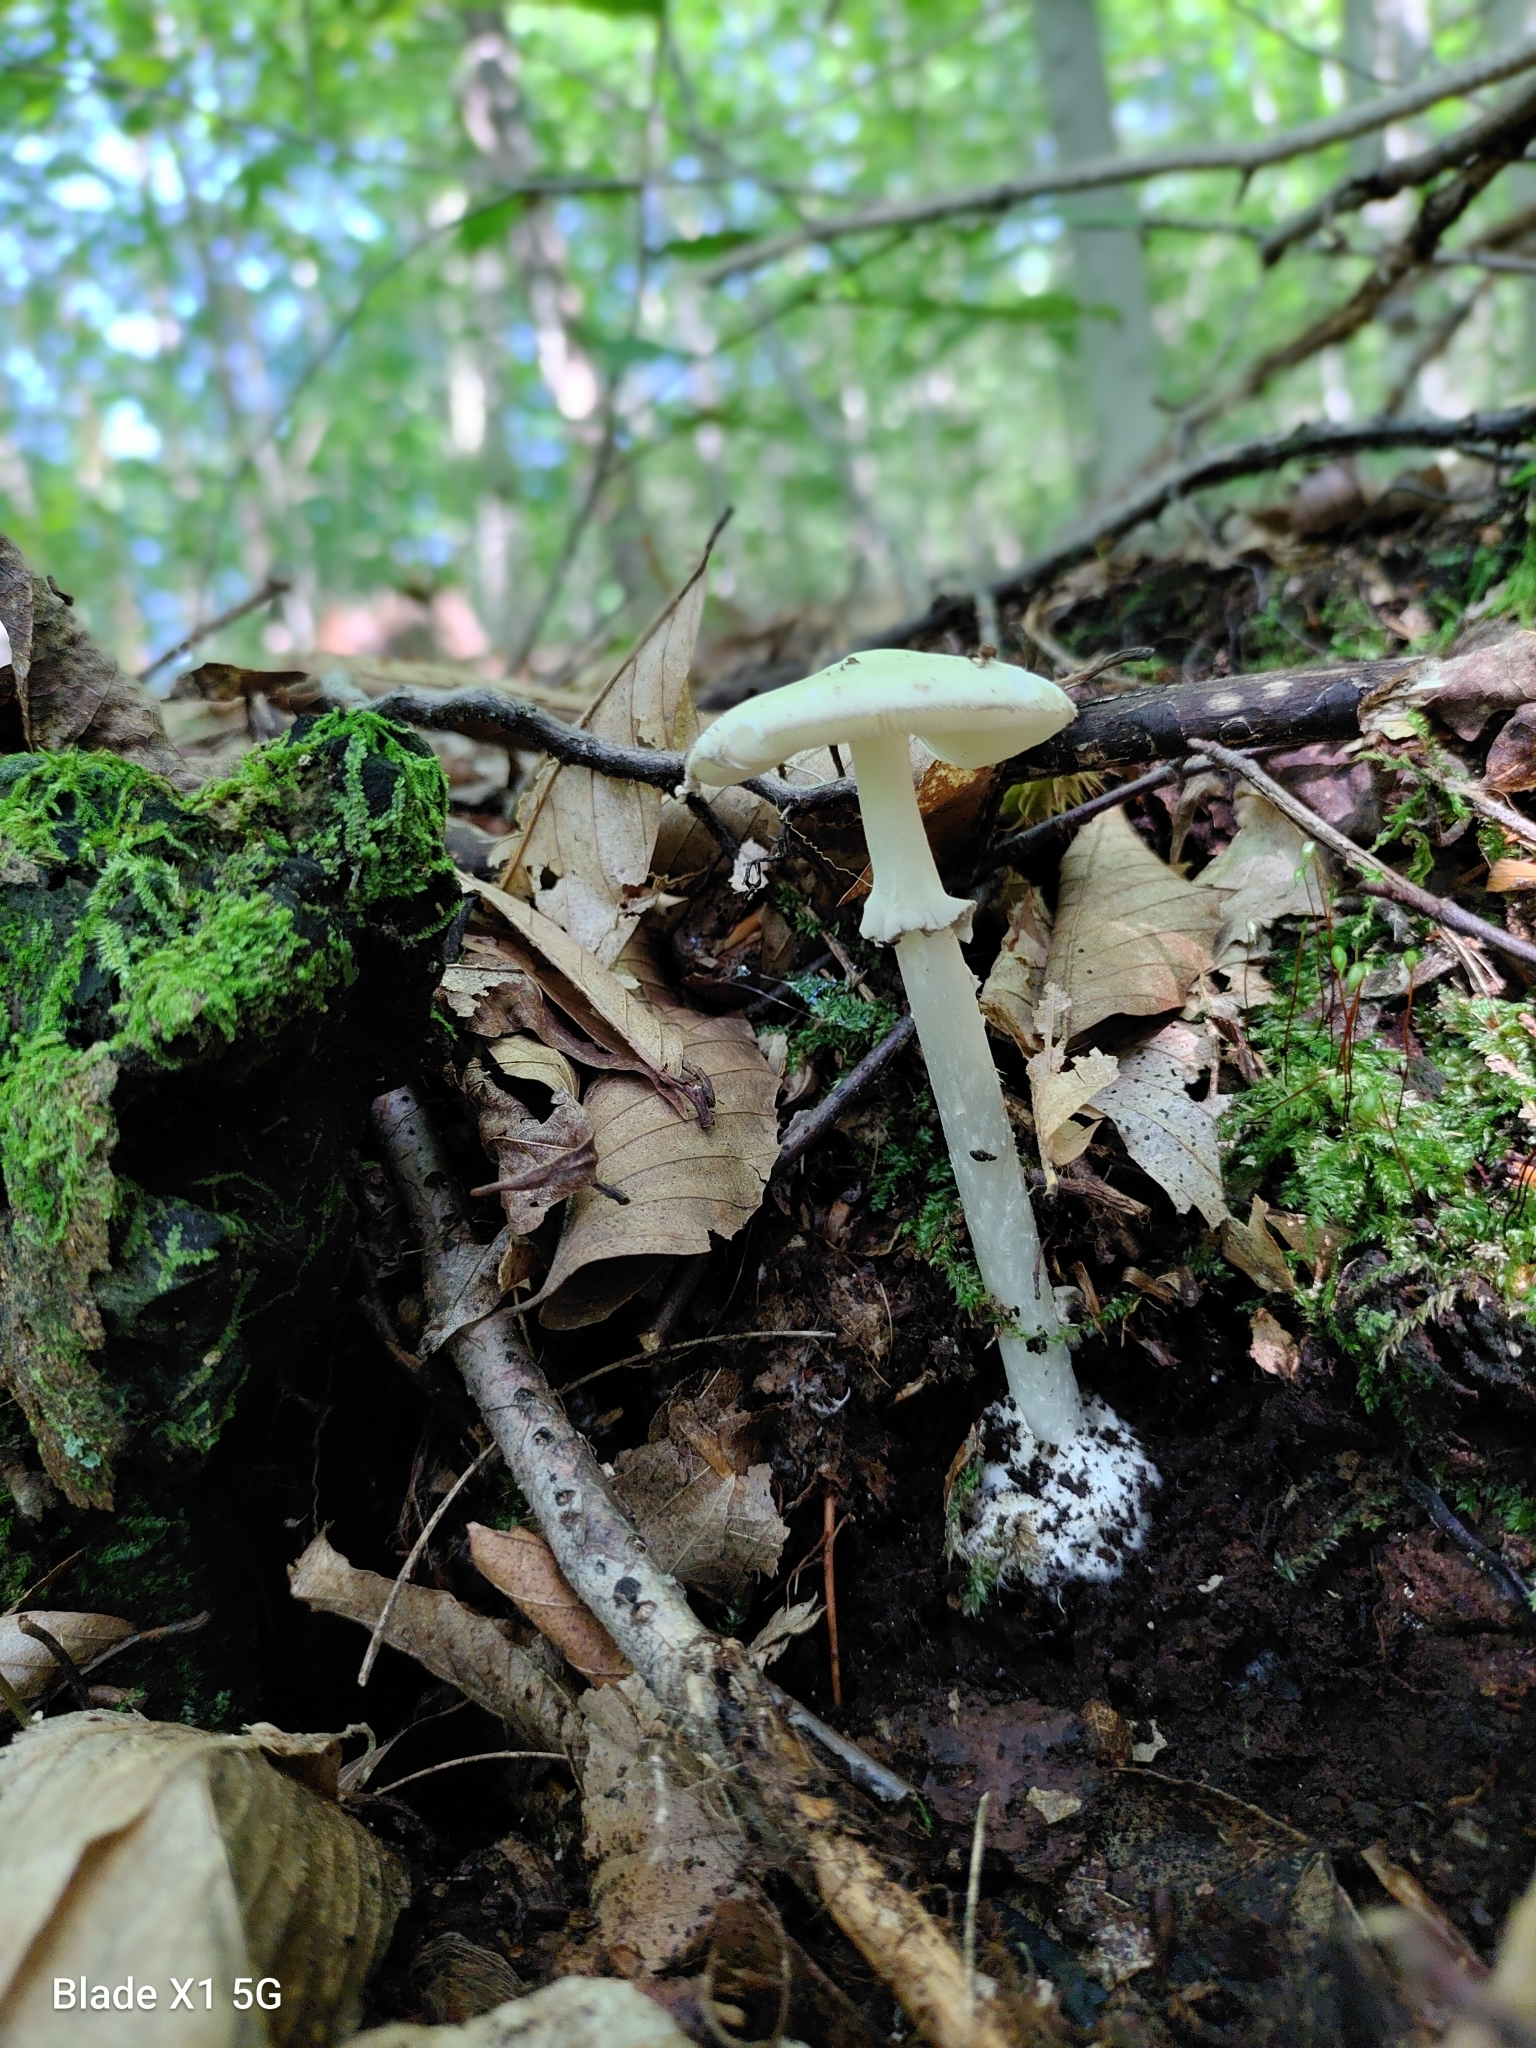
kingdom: Fungi
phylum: Basidiomycota
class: Agaricomycetes
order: Agaricales
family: Amanitaceae
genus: Amanita
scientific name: Amanita lavendula
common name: Coker's lavender staining amanita
